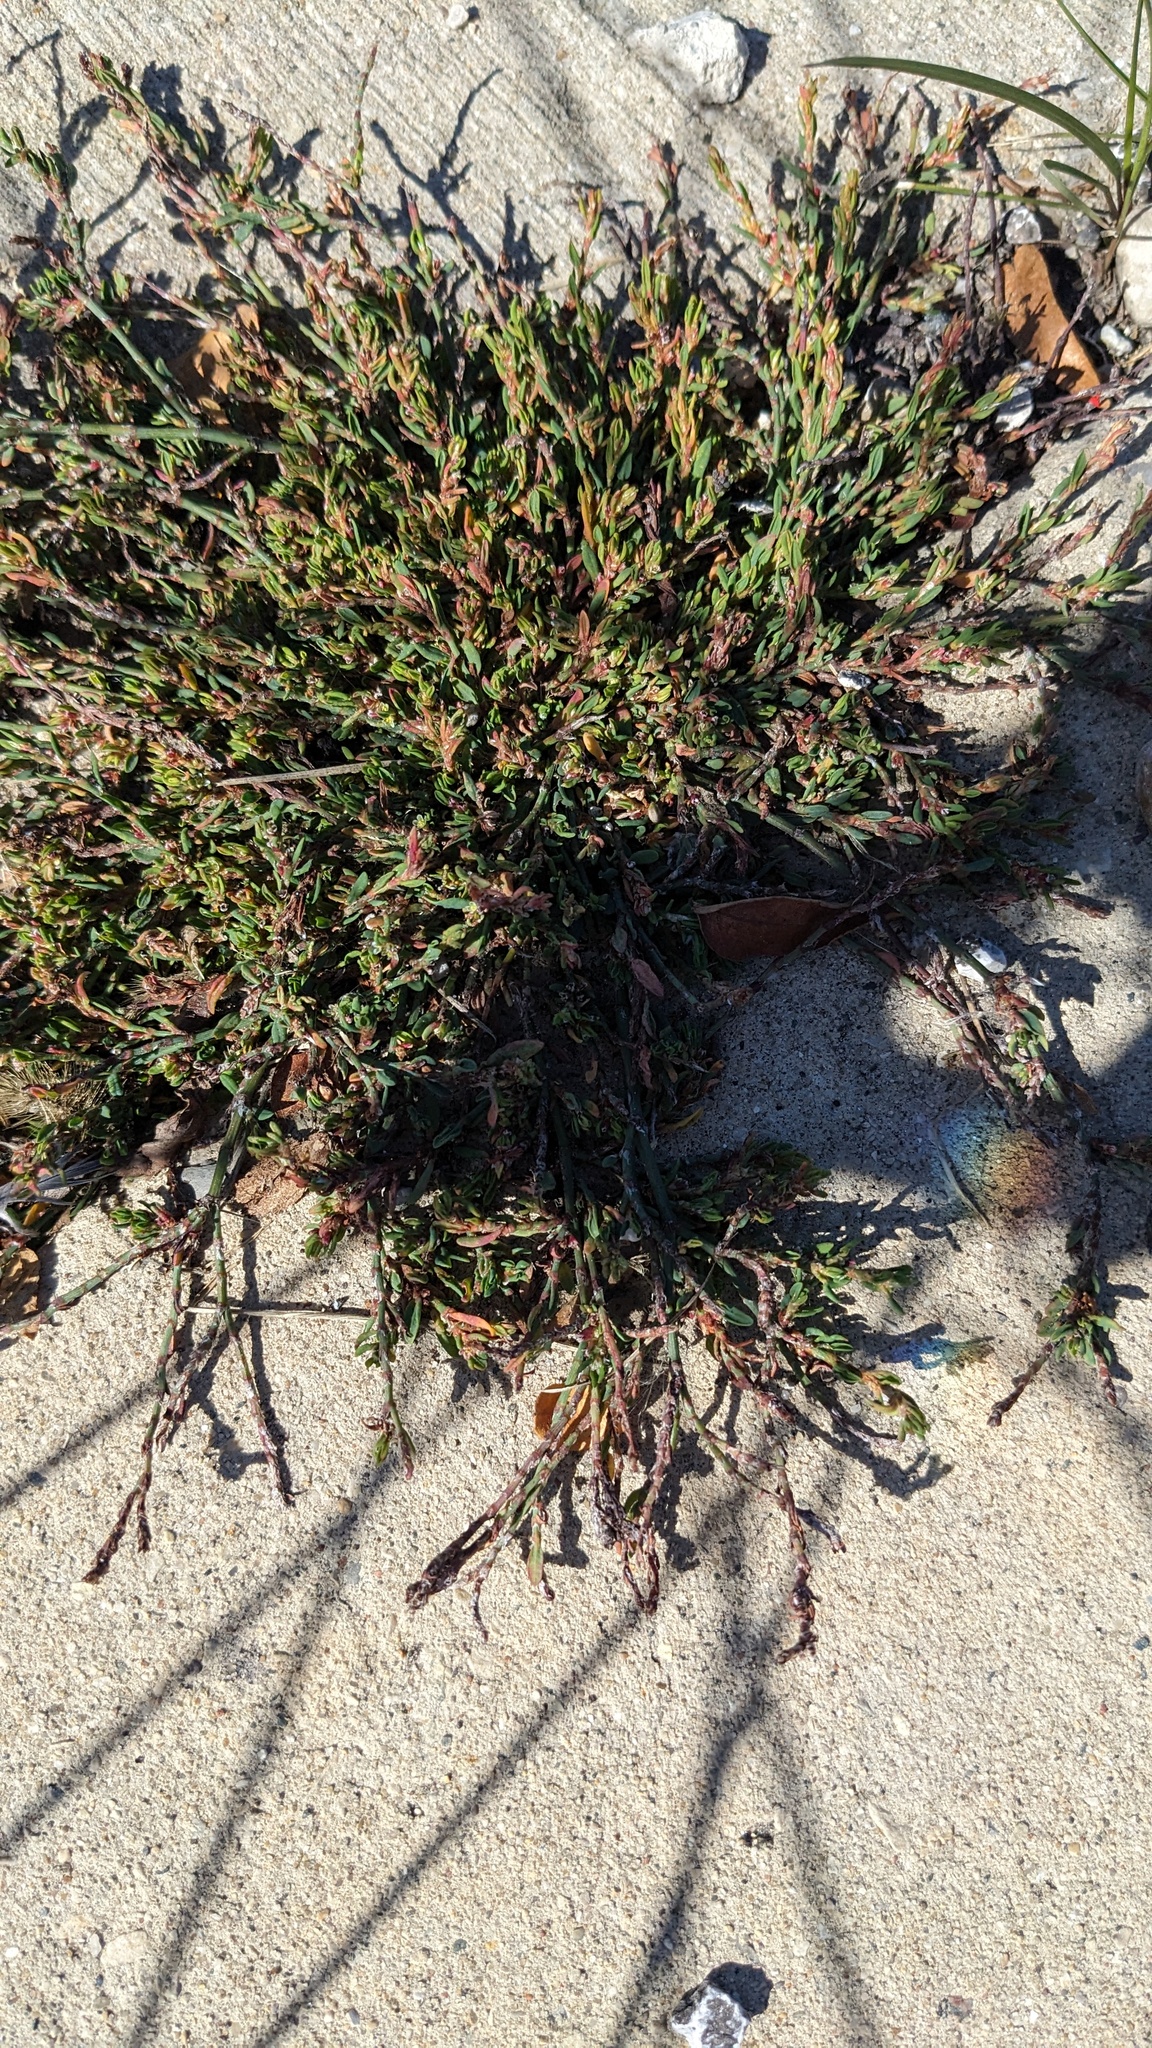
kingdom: Plantae
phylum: Tracheophyta
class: Magnoliopsida
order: Caryophyllales
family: Polygonaceae
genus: Polygonum
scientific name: Polygonum aviculare
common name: Prostrate knotweed
